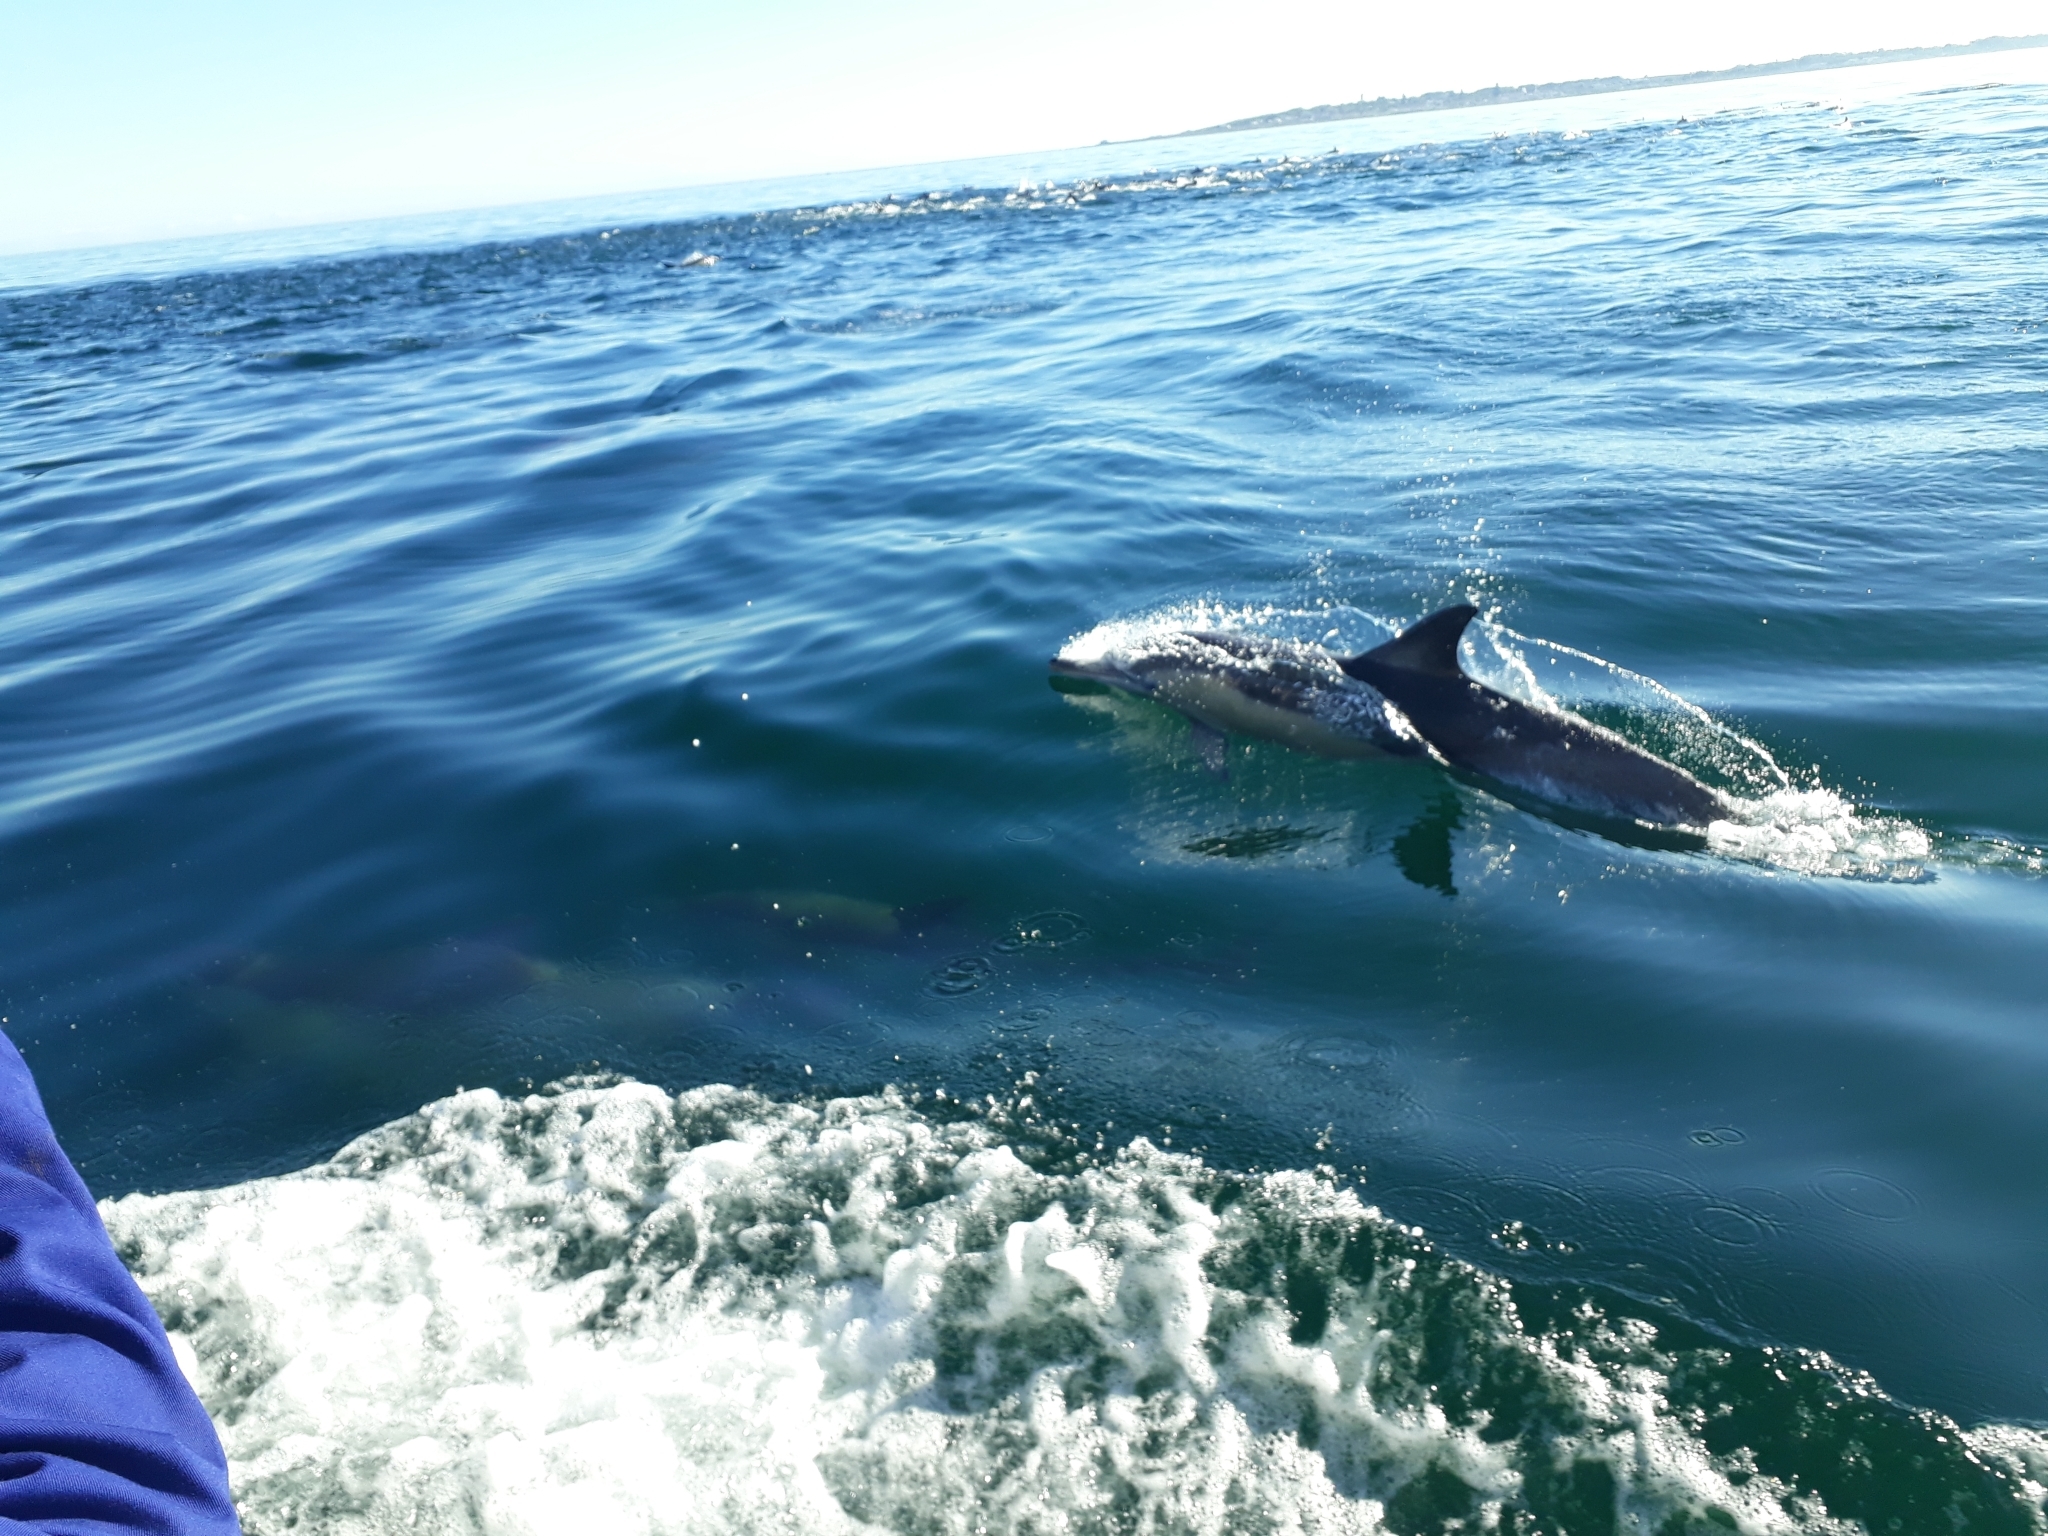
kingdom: Animalia
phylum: Chordata
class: Mammalia
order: Cetacea
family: Delphinidae
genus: Delphinus
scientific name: Delphinus delphis
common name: Common dolphin
